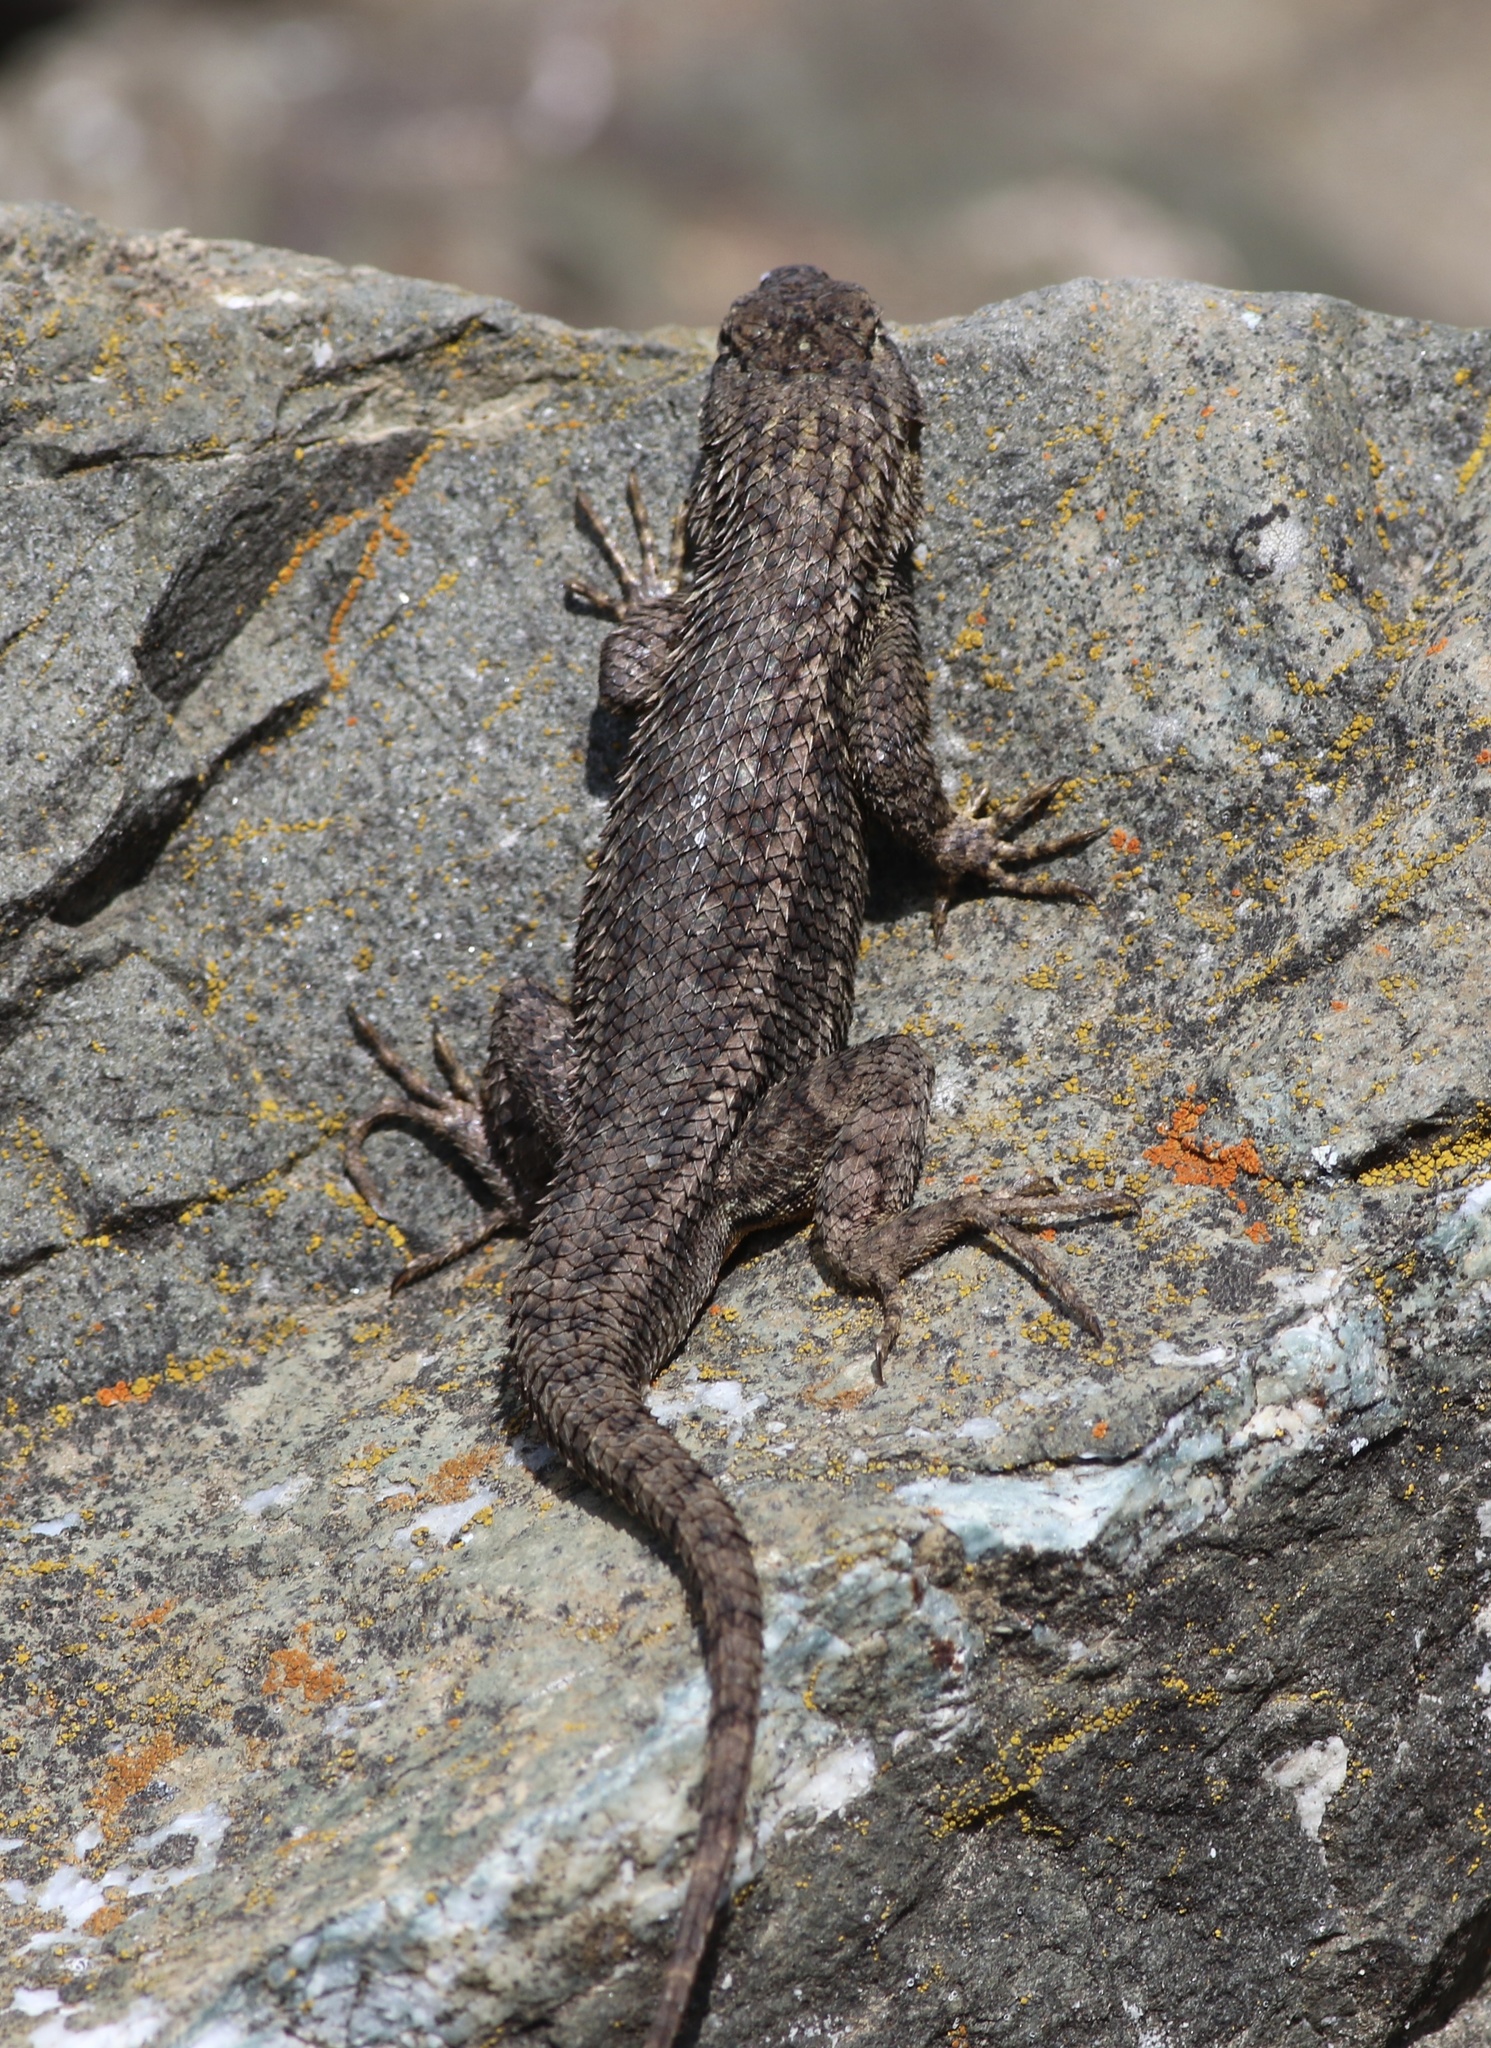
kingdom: Animalia
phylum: Chordata
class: Squamata
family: Phrynosomatidae
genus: Sceloporus
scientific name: Sceloporus occidentalis
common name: Western fence lizard
